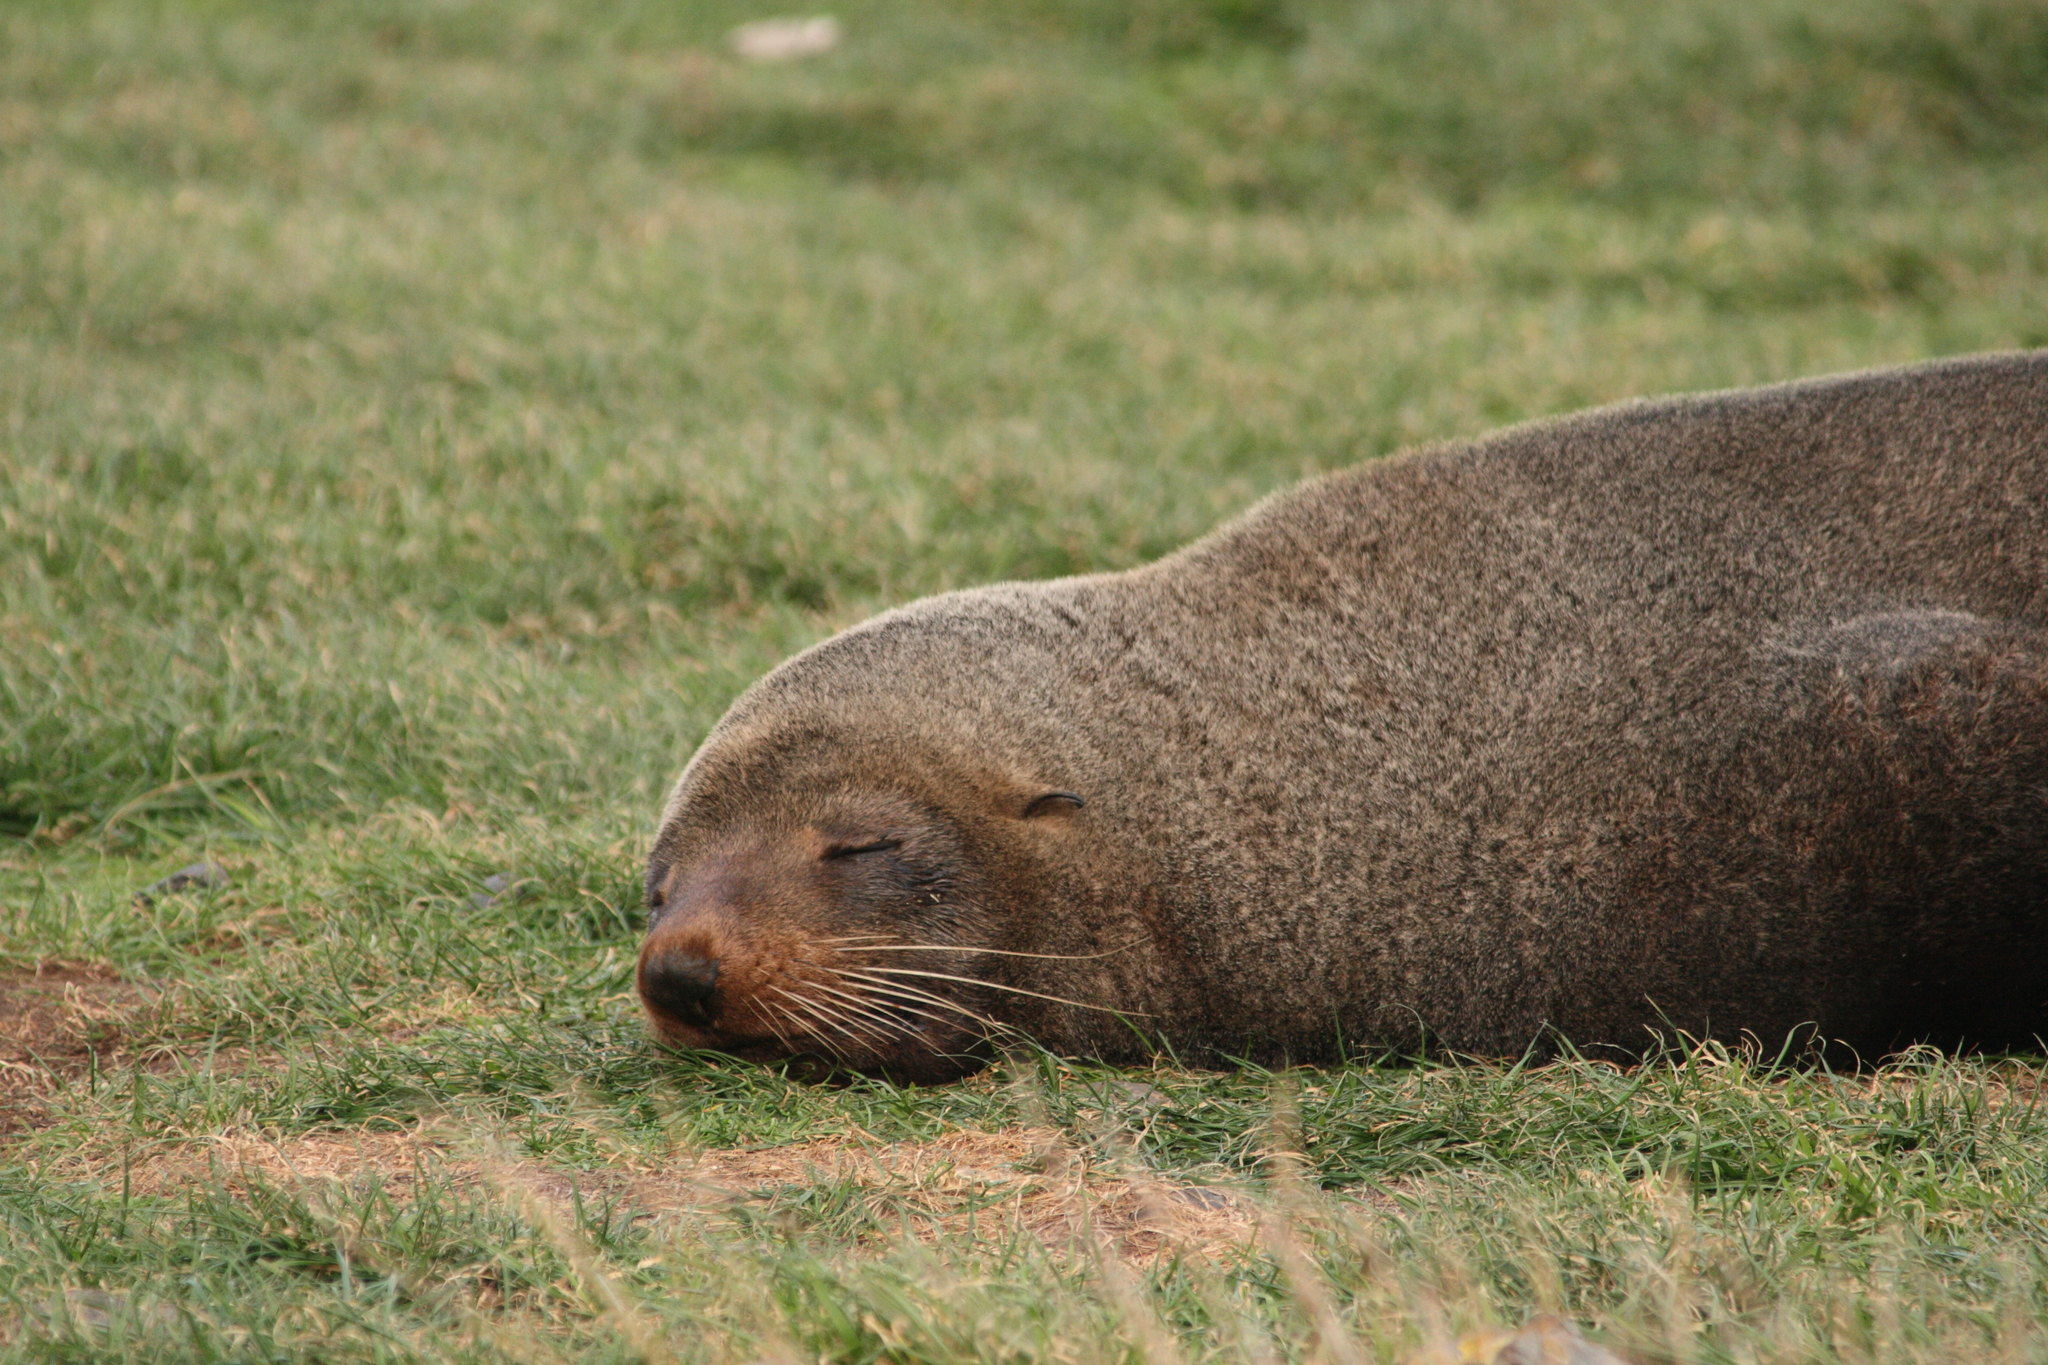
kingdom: Animalia
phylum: Chordata
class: Mammalia
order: Carnivora
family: Otariidae
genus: Arctocephalus
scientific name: Arctocephalus forsteri
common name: New zealand fur seal
